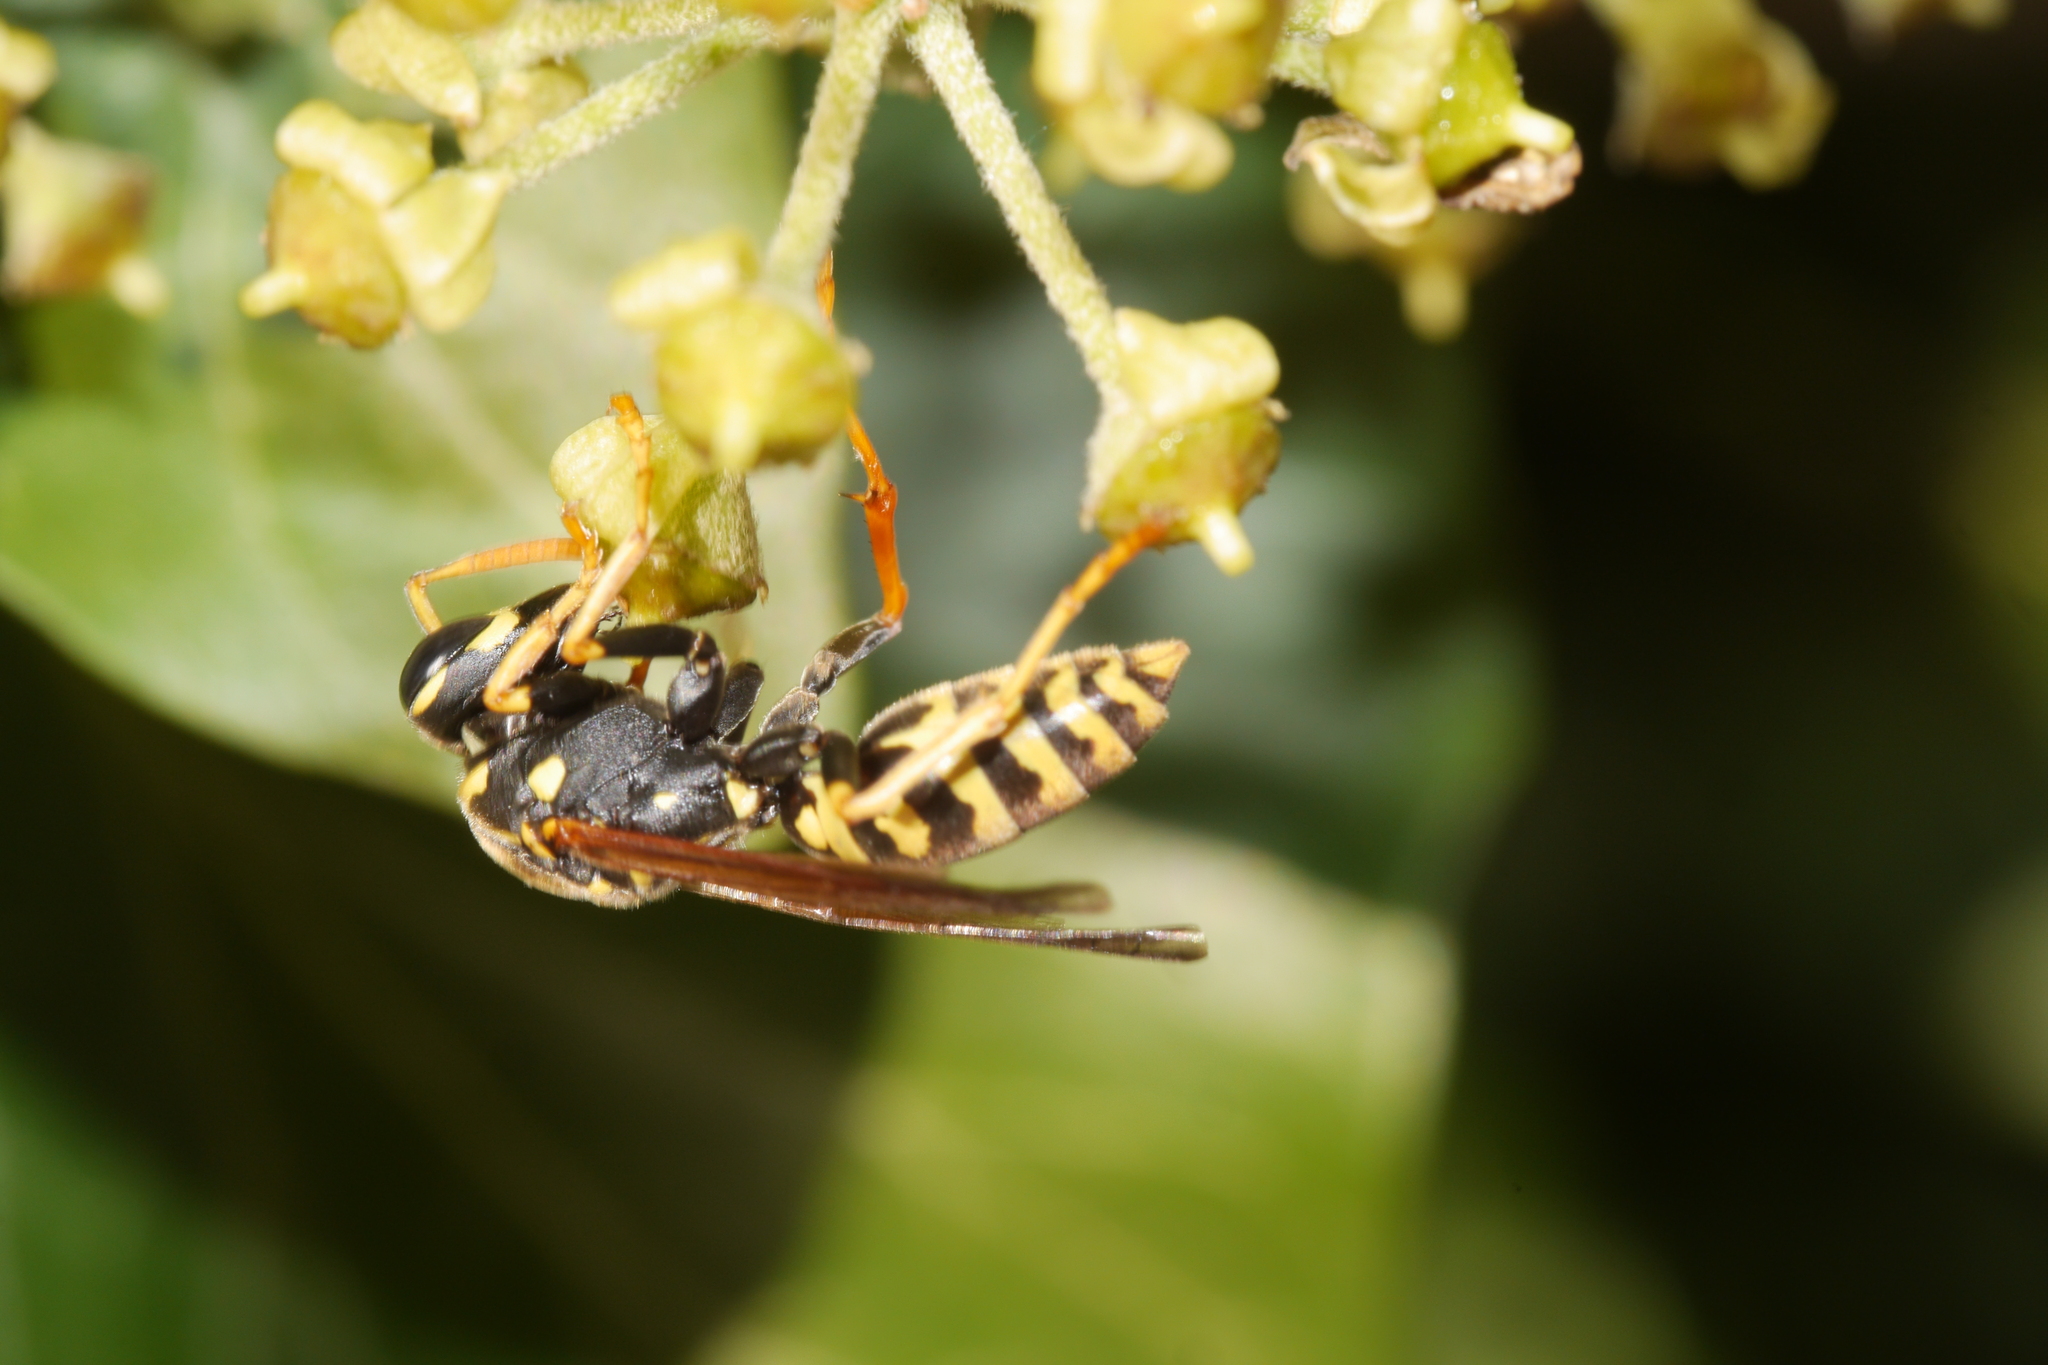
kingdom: Animalia
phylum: Arthropoda
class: Insecta
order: Hymenoptera
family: Eumenidae
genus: Polistes
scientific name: Polistes dominula
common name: Paper wasp
